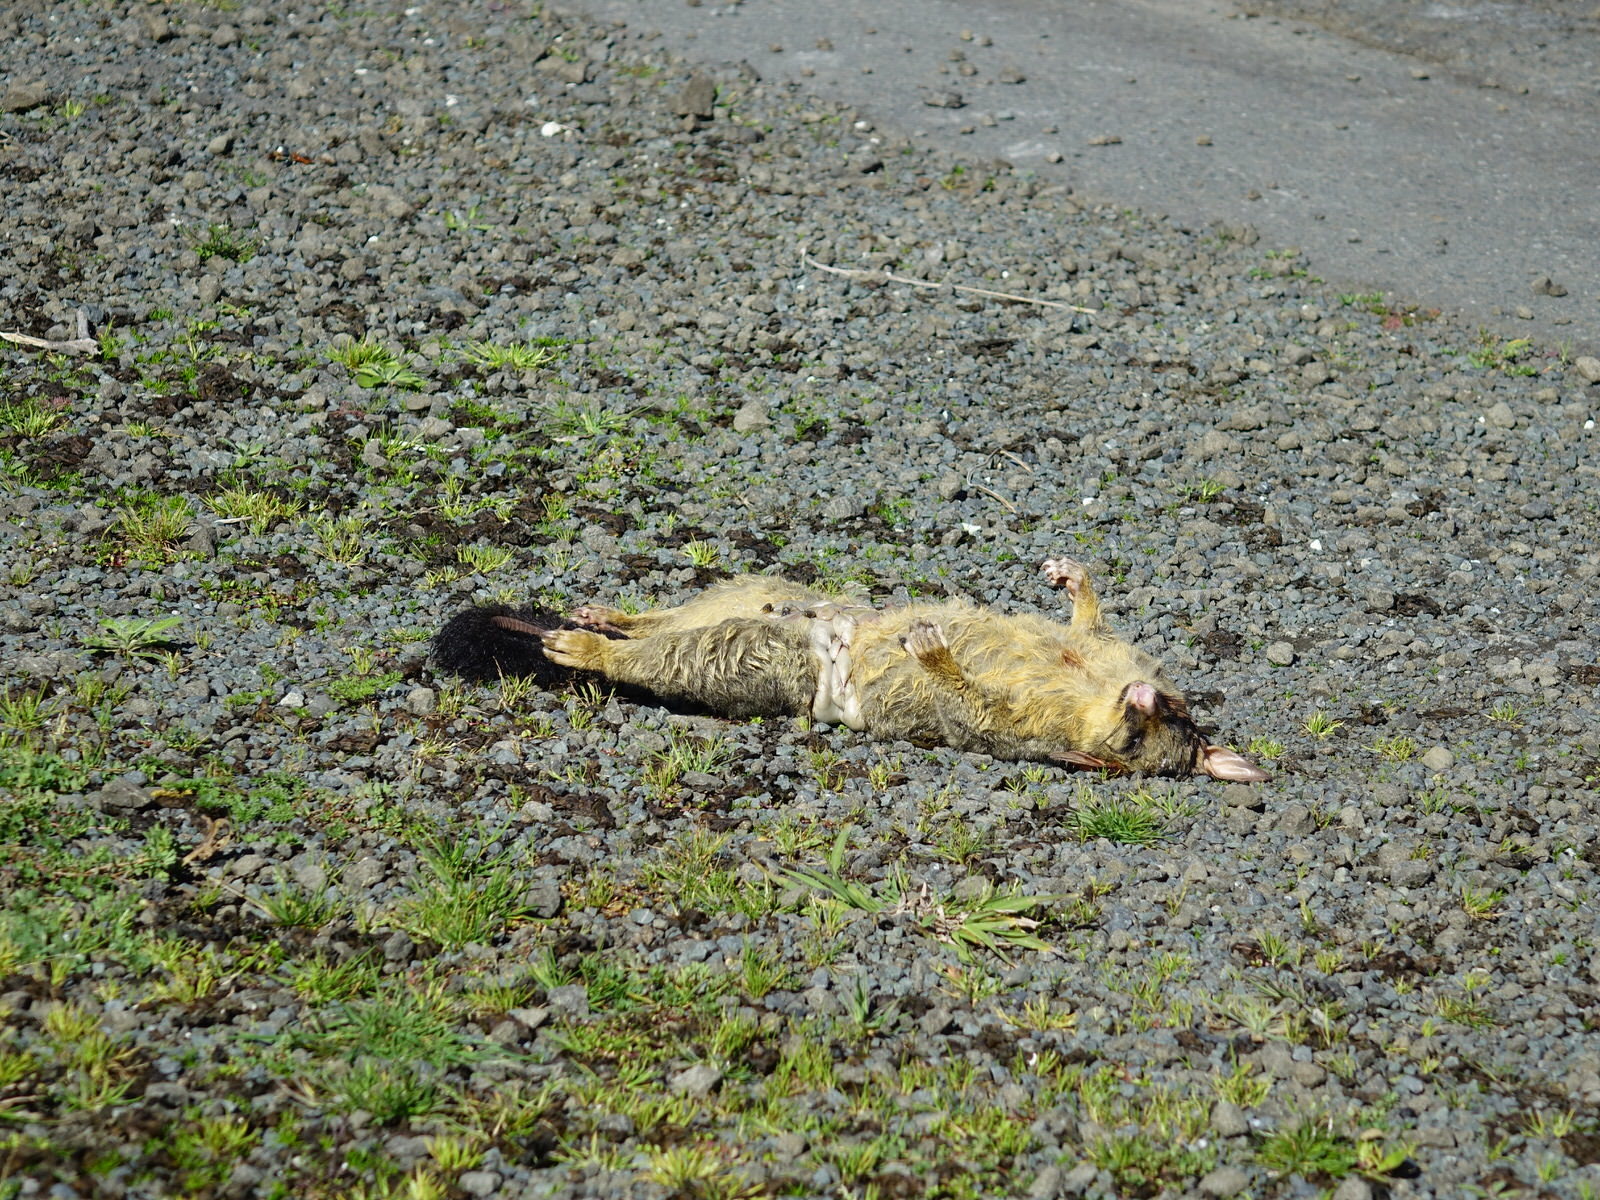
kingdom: Animalia
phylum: Chordata
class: Mammalia
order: Diprotodontia
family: Phalangeridae
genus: Trichosurus
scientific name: Trichosurus vulpecula
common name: Common brushtail
